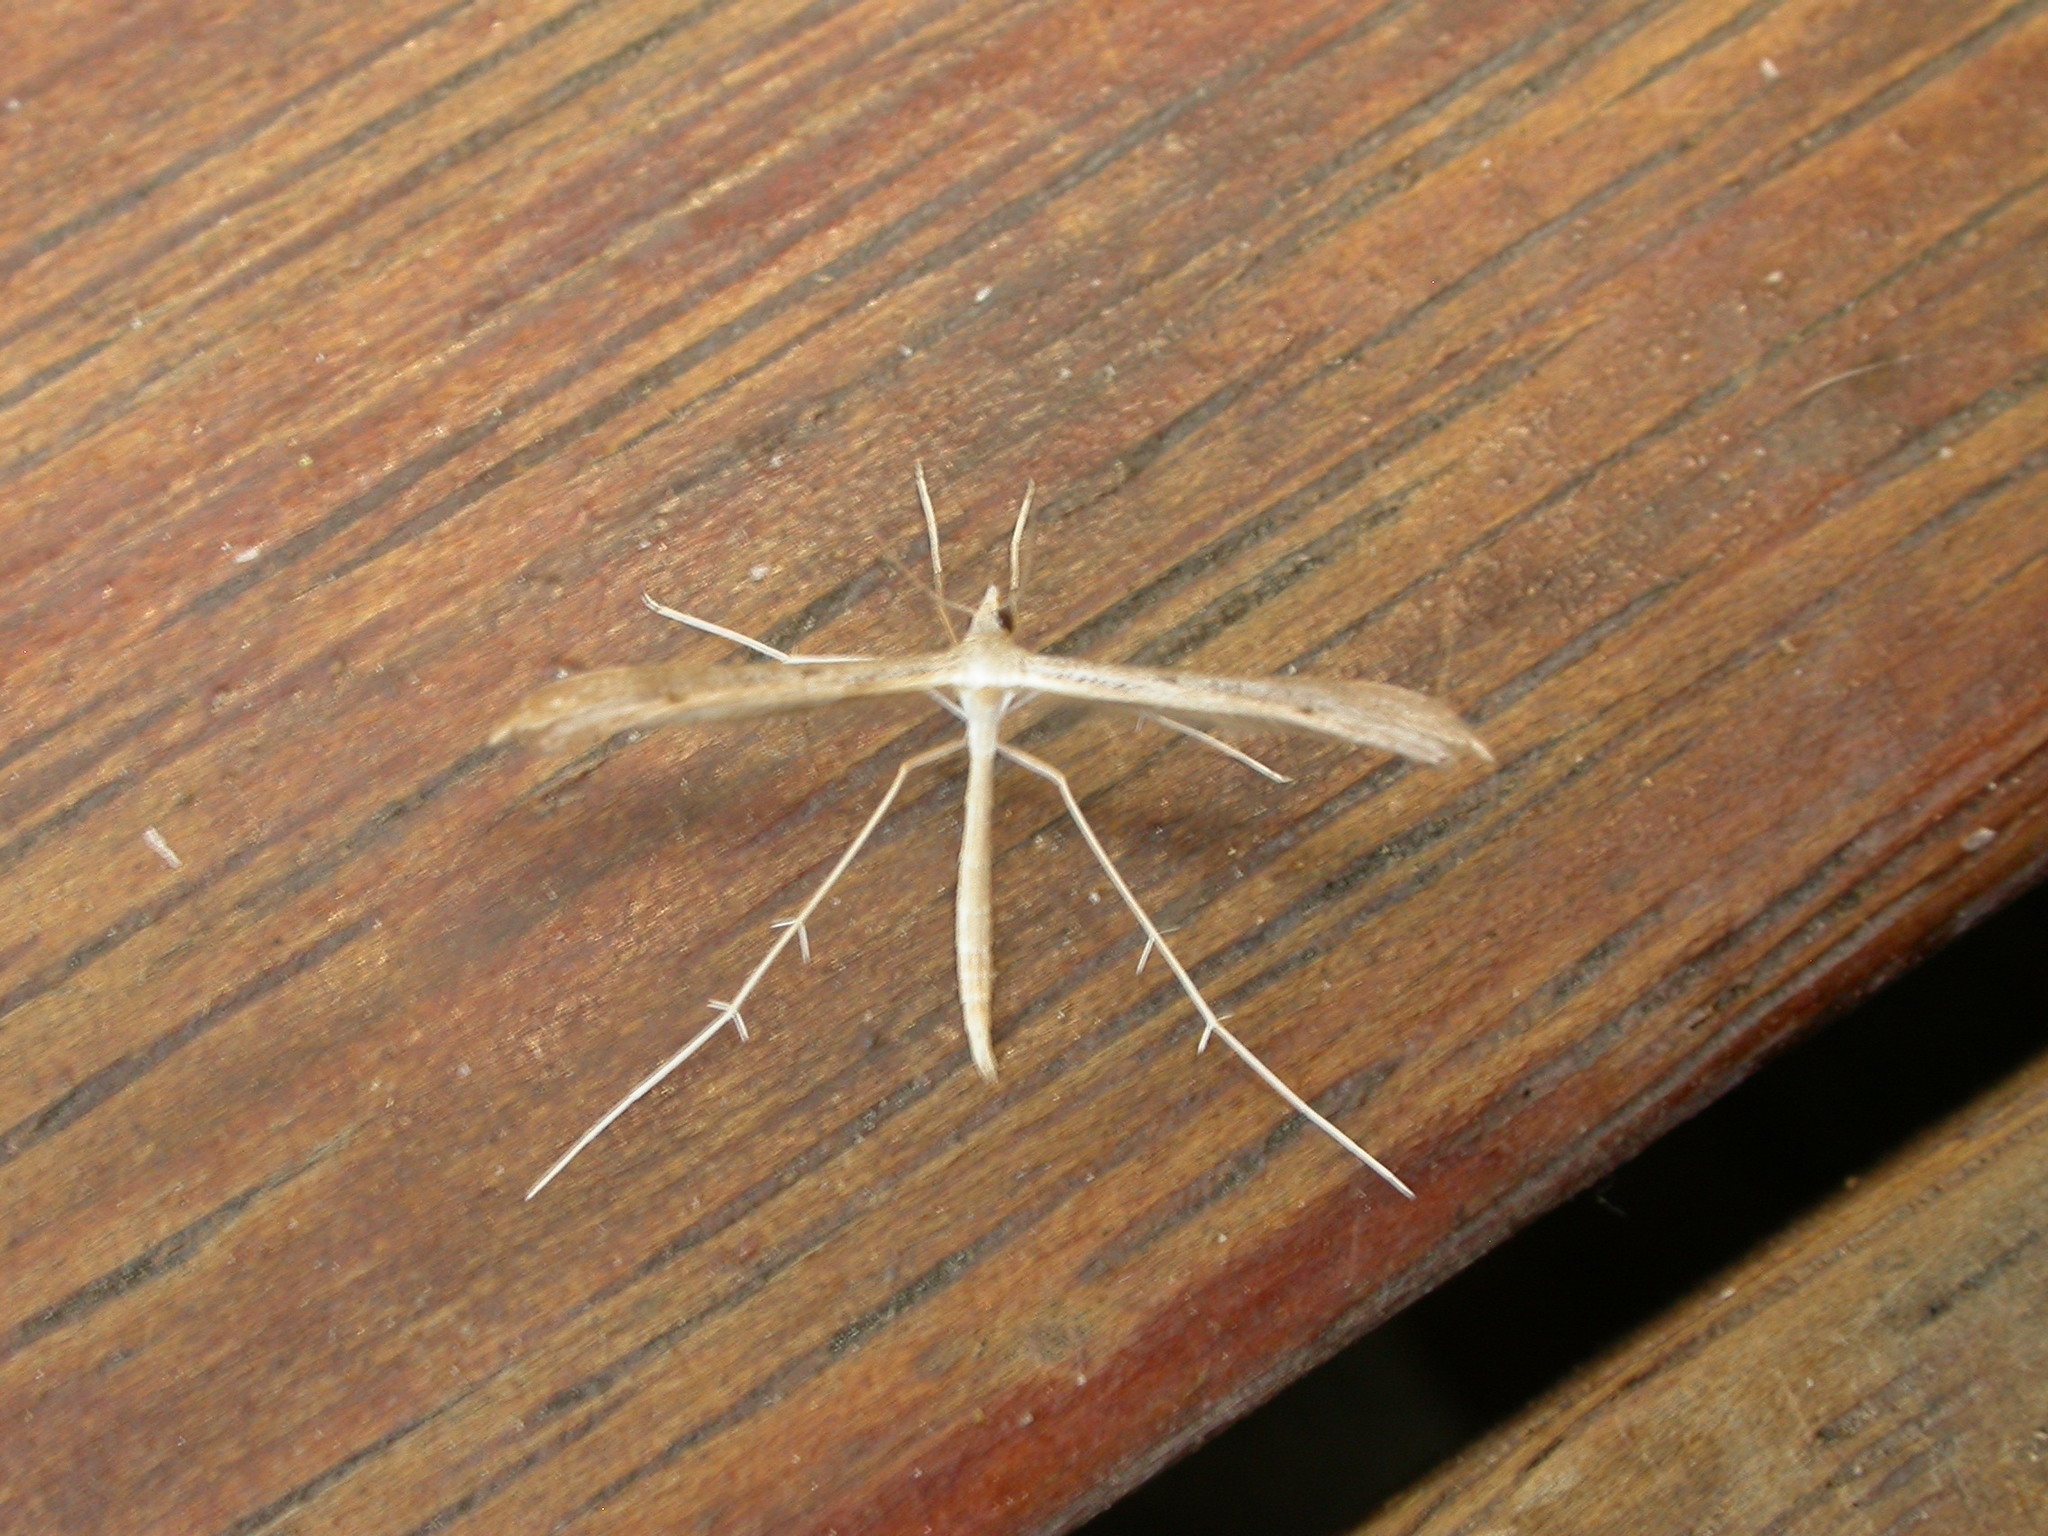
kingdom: Animalia
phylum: Arthropoda
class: Insecta
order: Lepidoptera
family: Pterophoridae
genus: Stenoptilia
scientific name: Stenoptilia zophodactylus
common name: Dowdy plume
